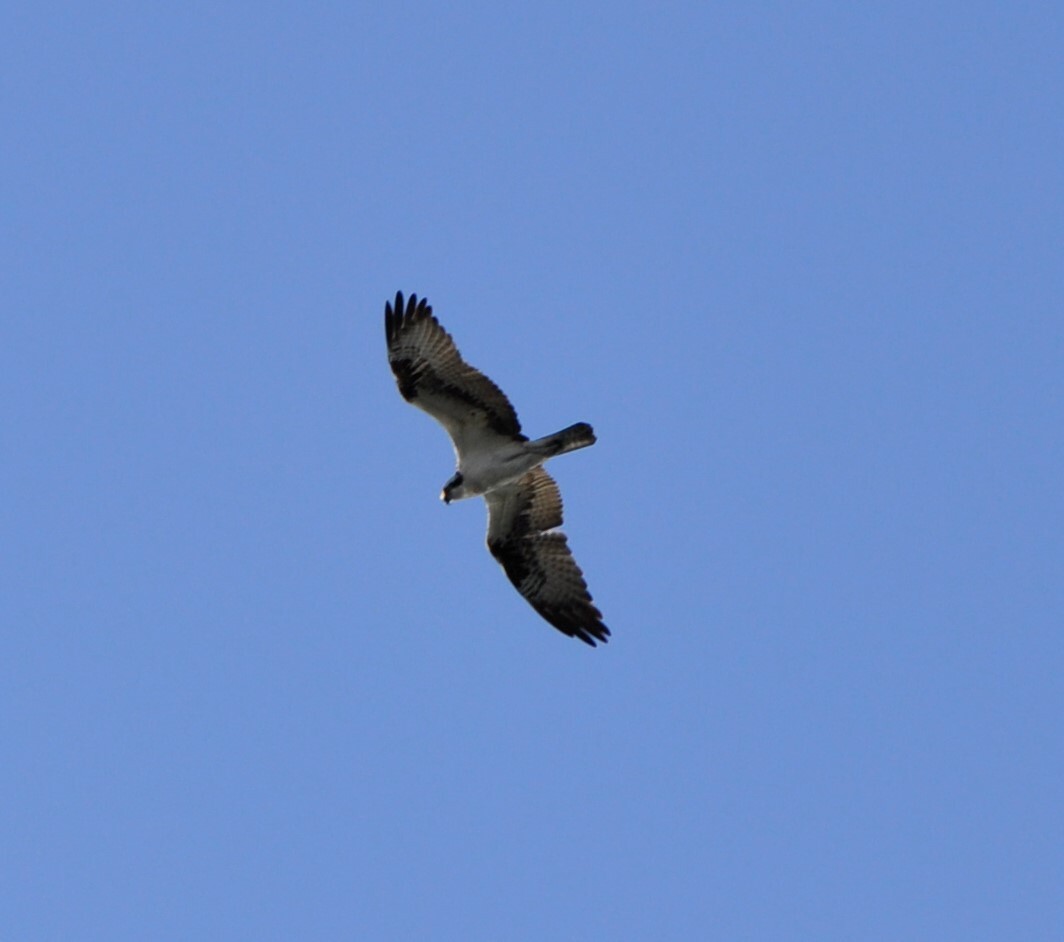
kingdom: Animalia
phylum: Chordata
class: Aves
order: Accipitriformes
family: Pandionidae
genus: Pandion
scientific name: Pandion haliaetus
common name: Osprey
